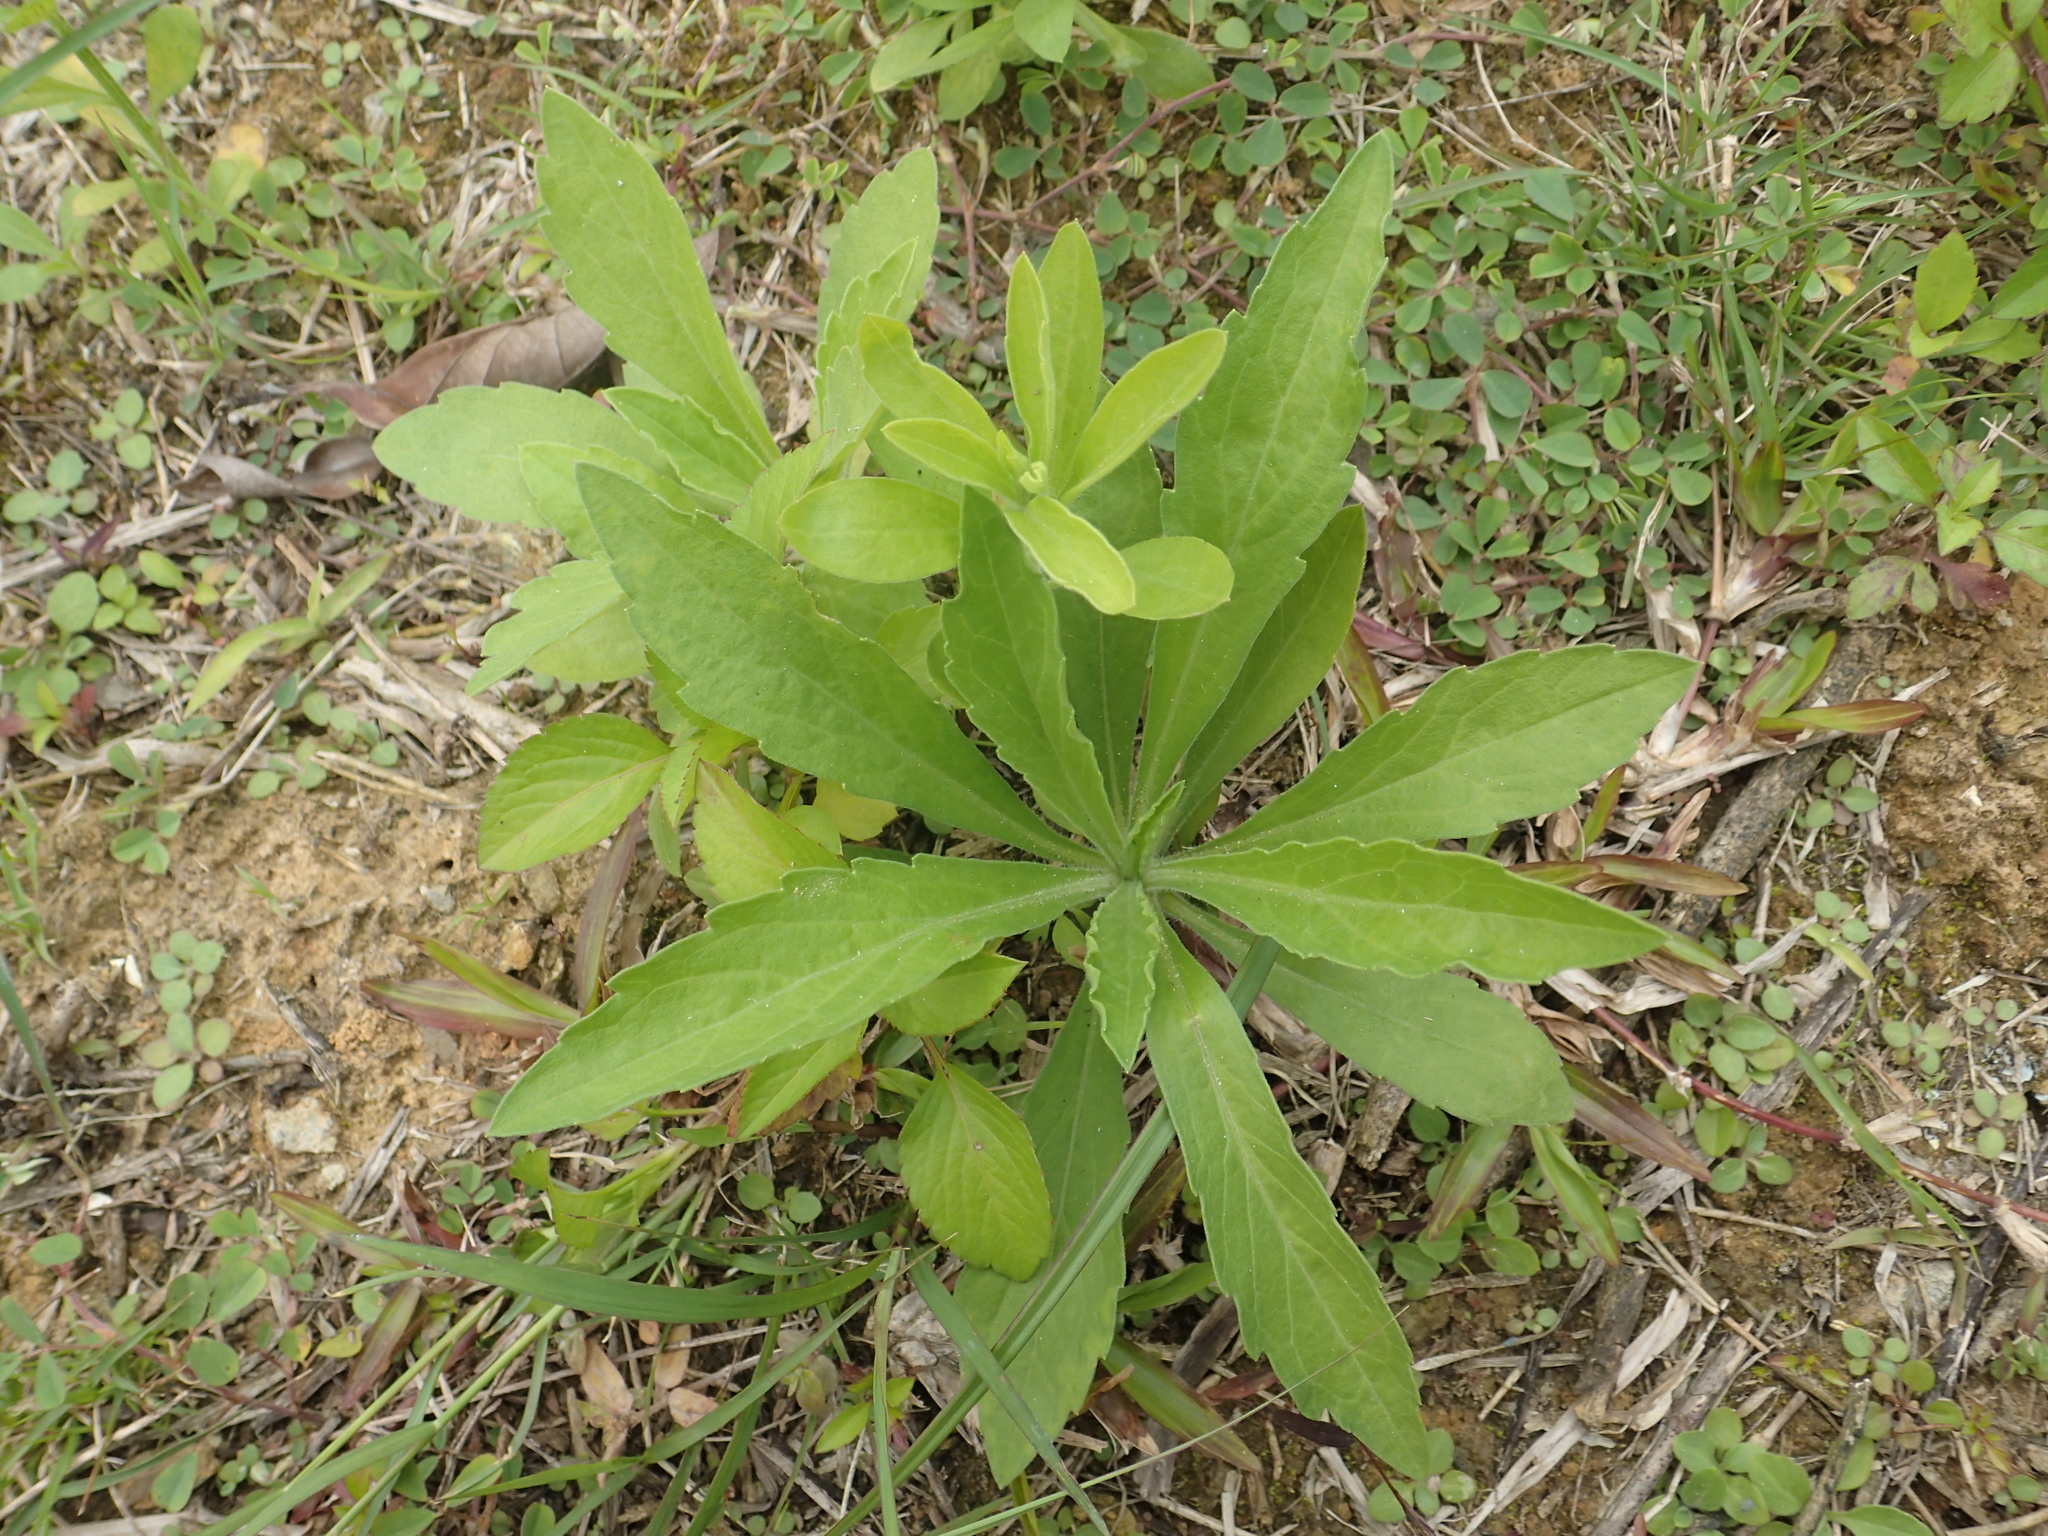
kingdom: Plantae
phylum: Tracheophyta
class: Magnoliopsida
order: Asterales
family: Asteraceae
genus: Erigeron
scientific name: Erigeron sumatrensis
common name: Daisy
